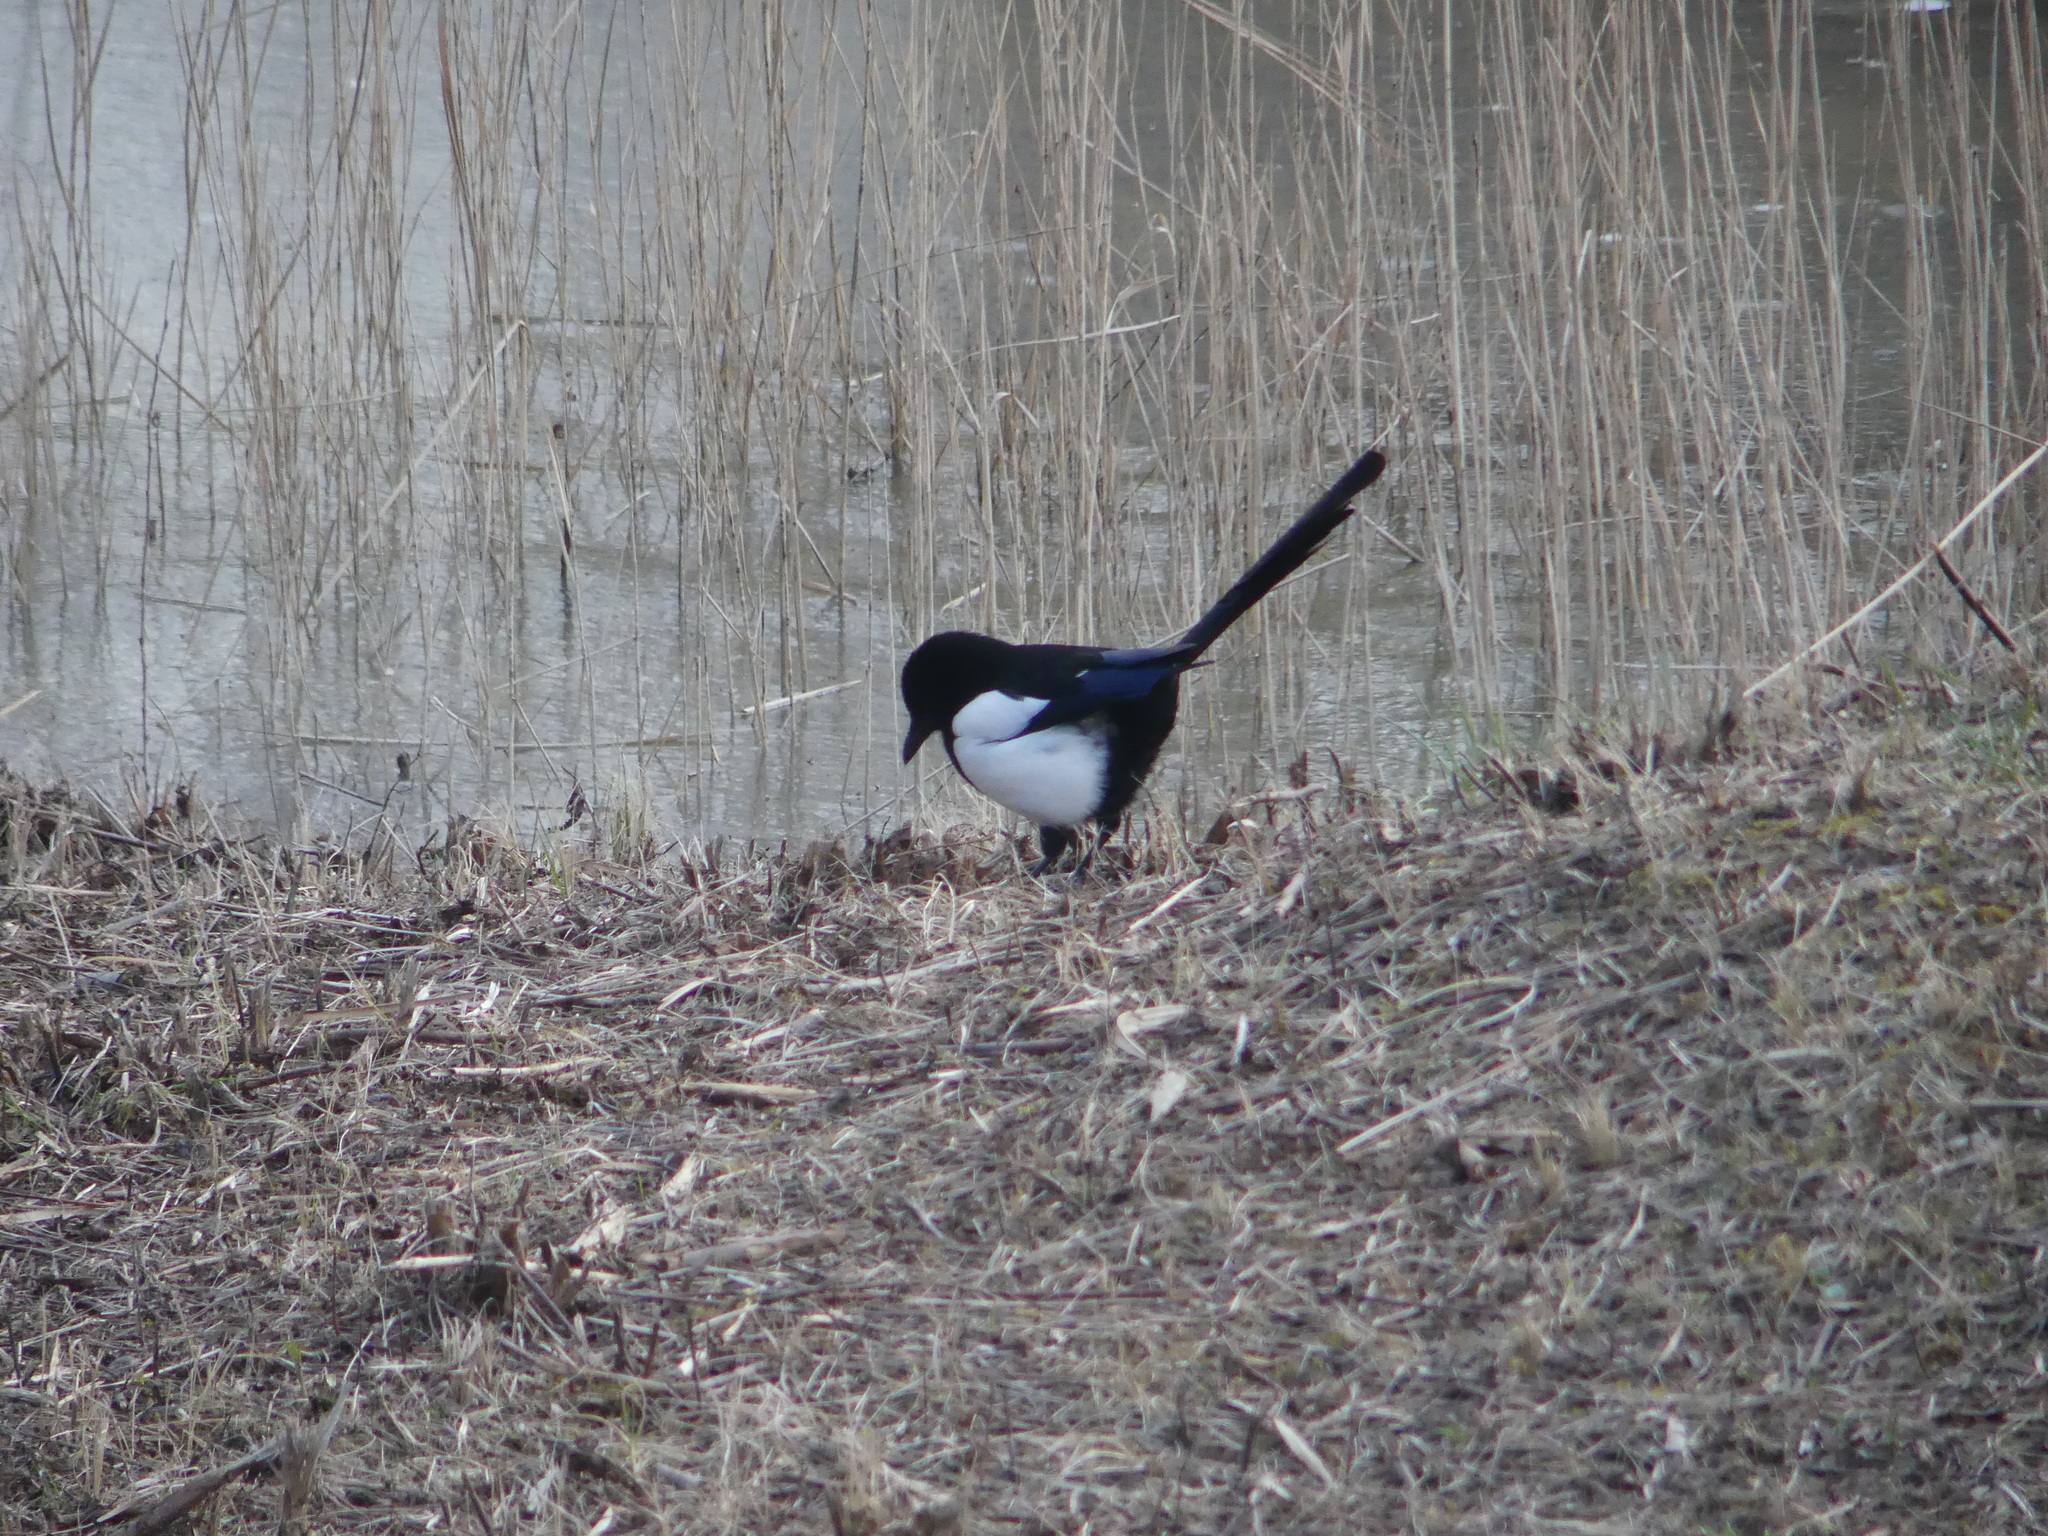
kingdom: Animalia
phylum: Chordata
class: Aves
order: Passeriformes
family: Corvidae
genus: Pica
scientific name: Pica pica
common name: Eurasian magpie
